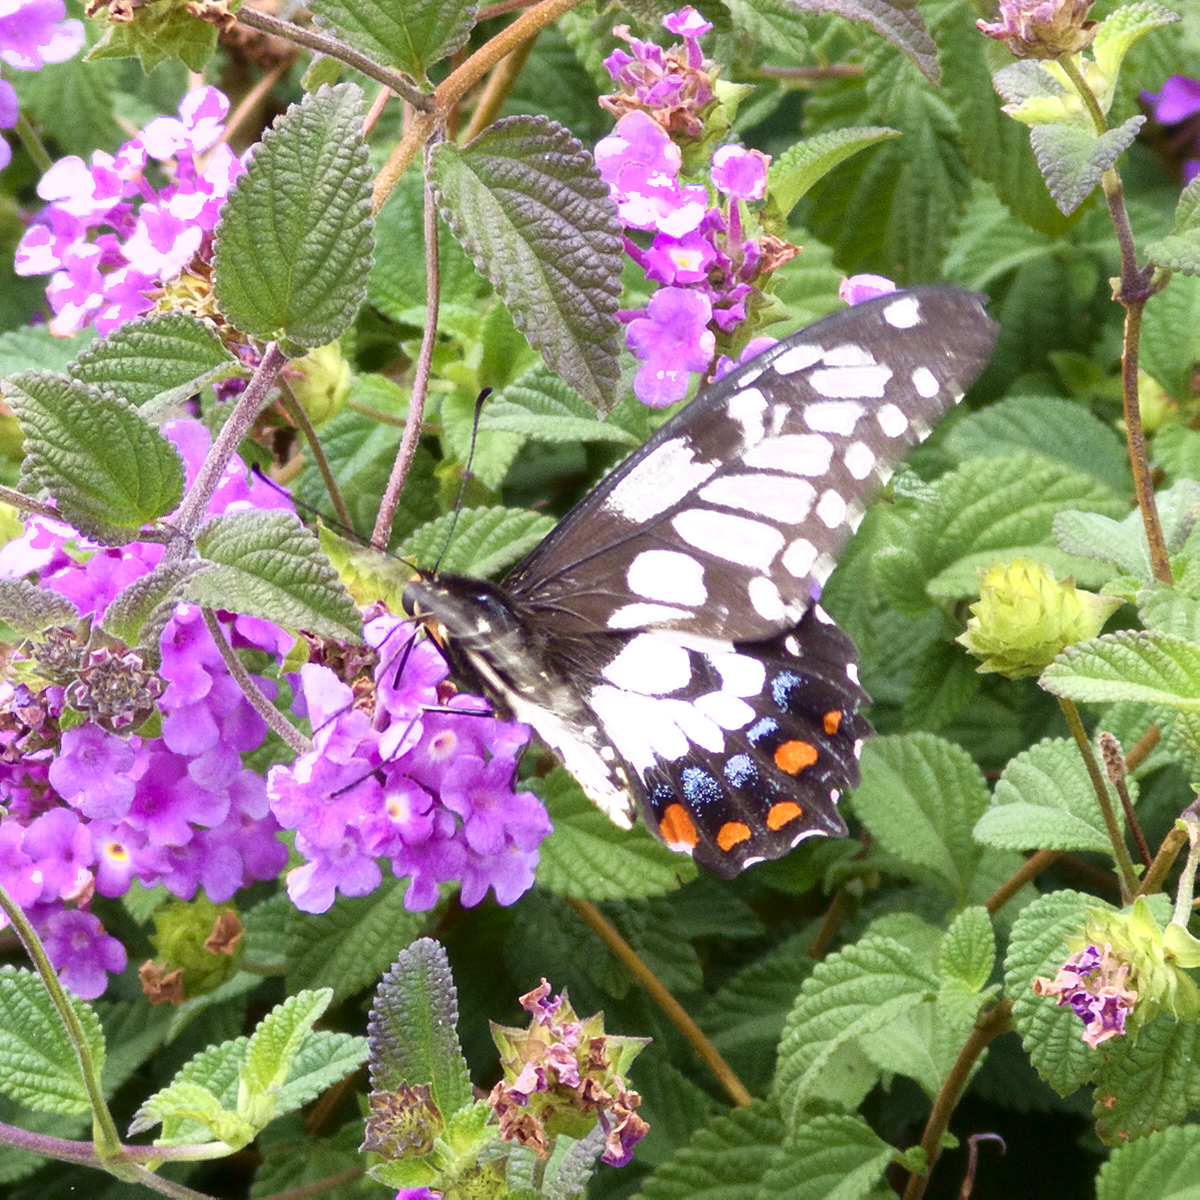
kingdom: Animalia
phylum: Arthropoda
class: Insecta
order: Lepidoptera
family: Papilionidae
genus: Papilio
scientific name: Papilio anactus
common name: Dingy swallowtail
